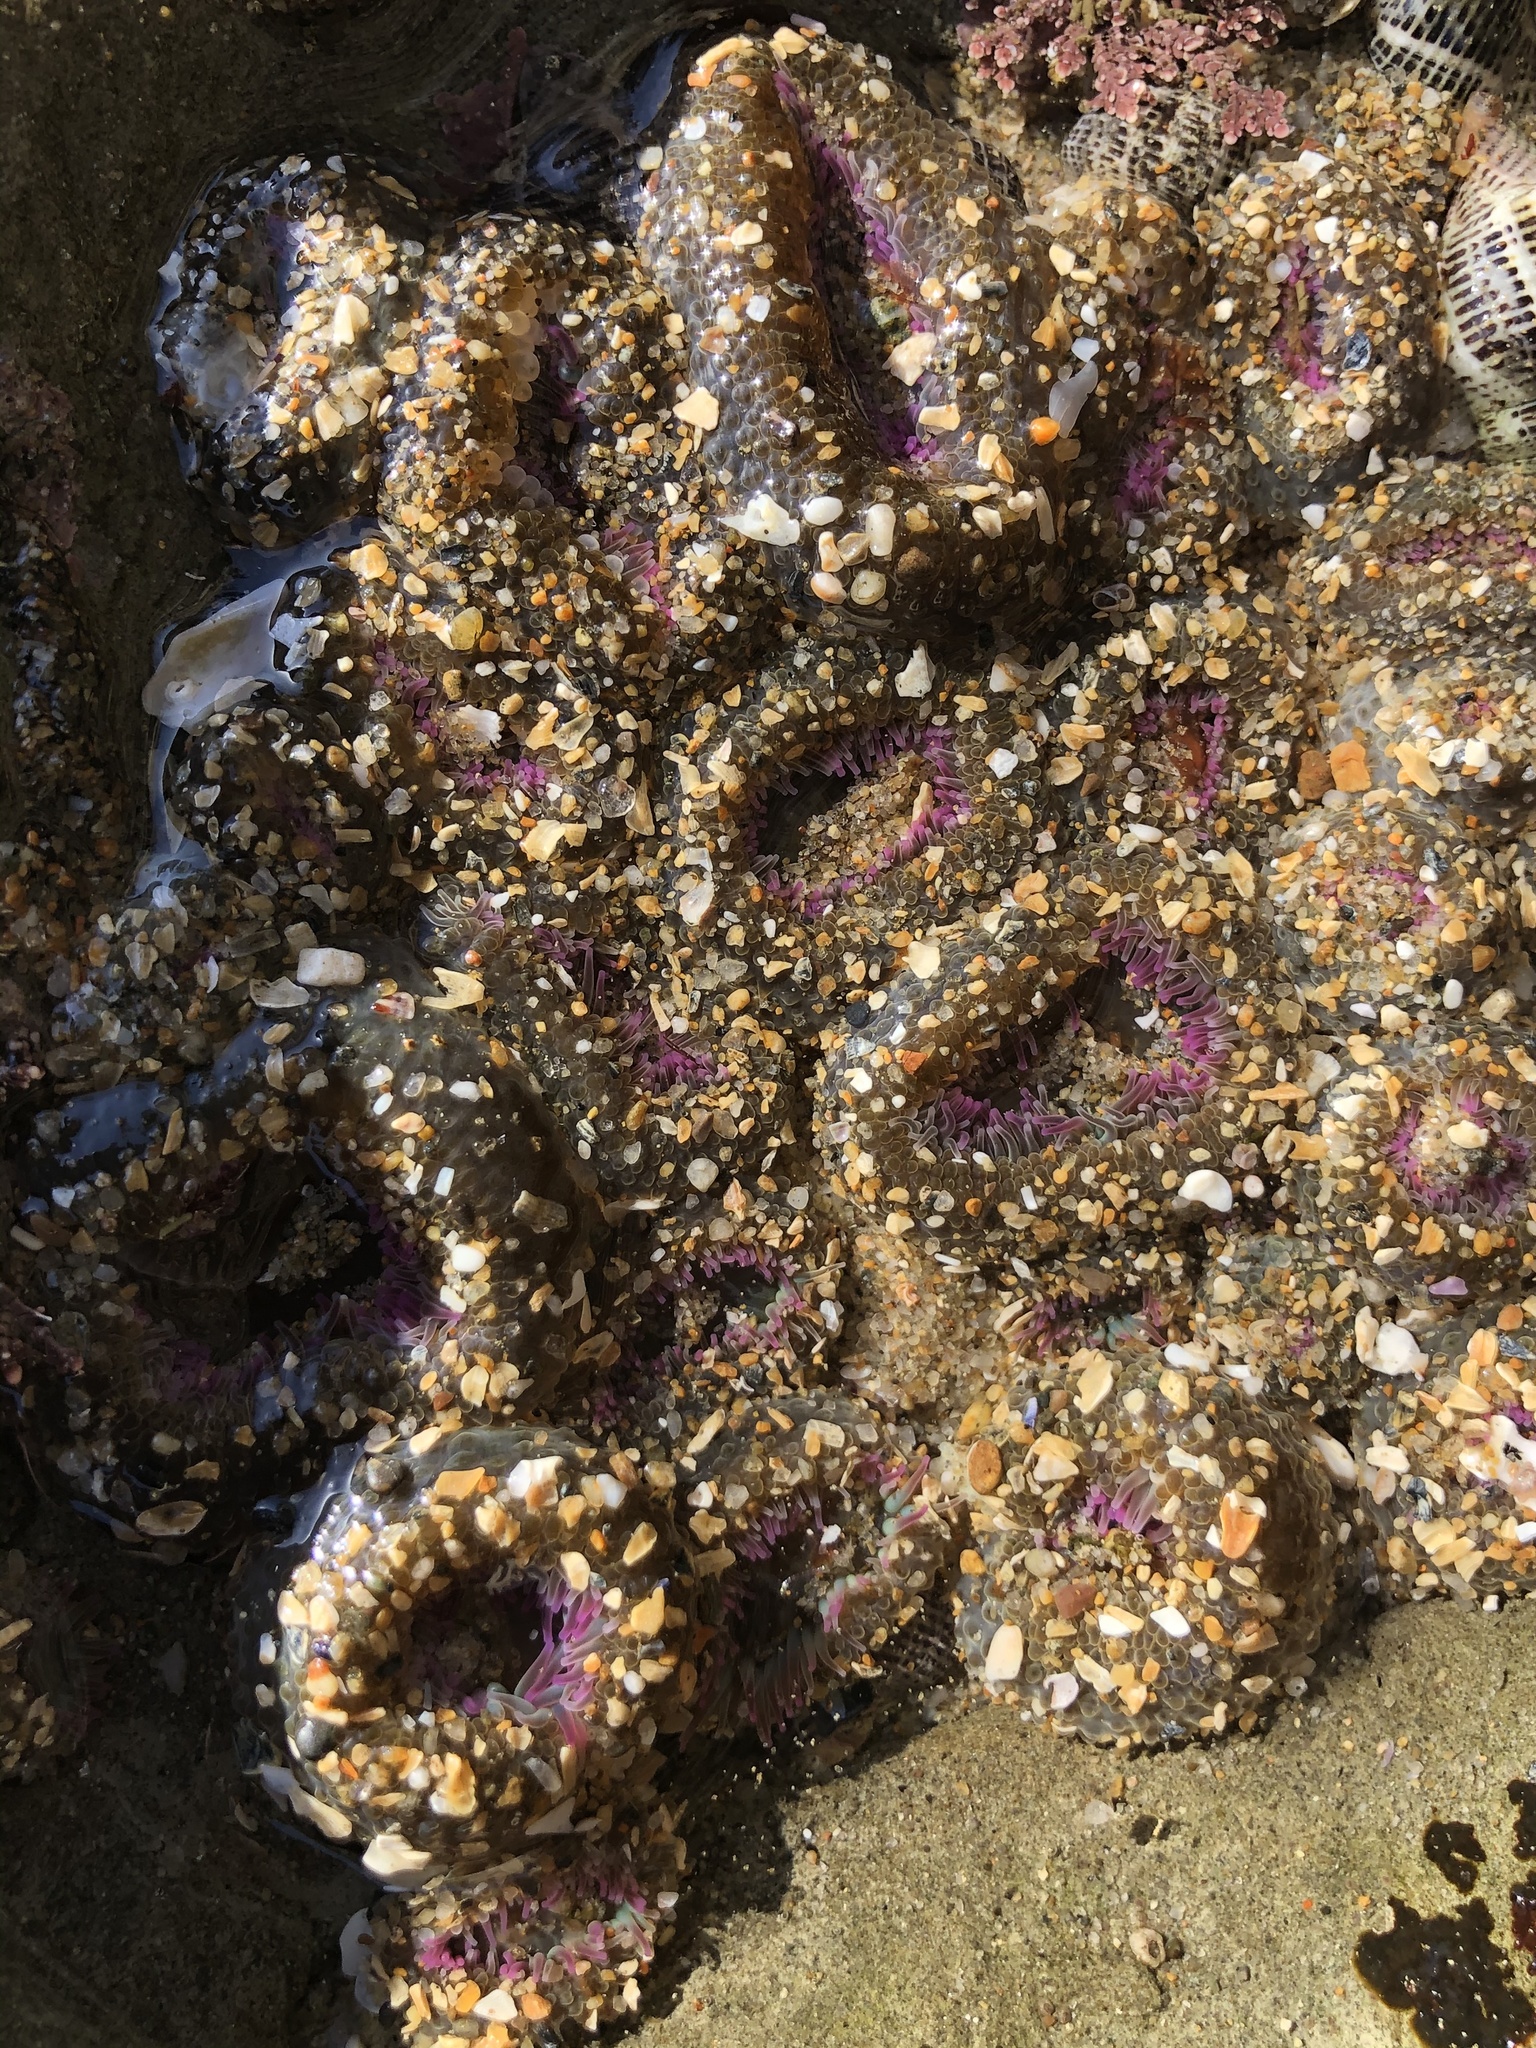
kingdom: Animalia
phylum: Cnidaria
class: Anthozoa
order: Actiniaria
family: Actiniidae
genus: Anthopleura
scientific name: Anthopleura elegantissima
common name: Clonal anemone
